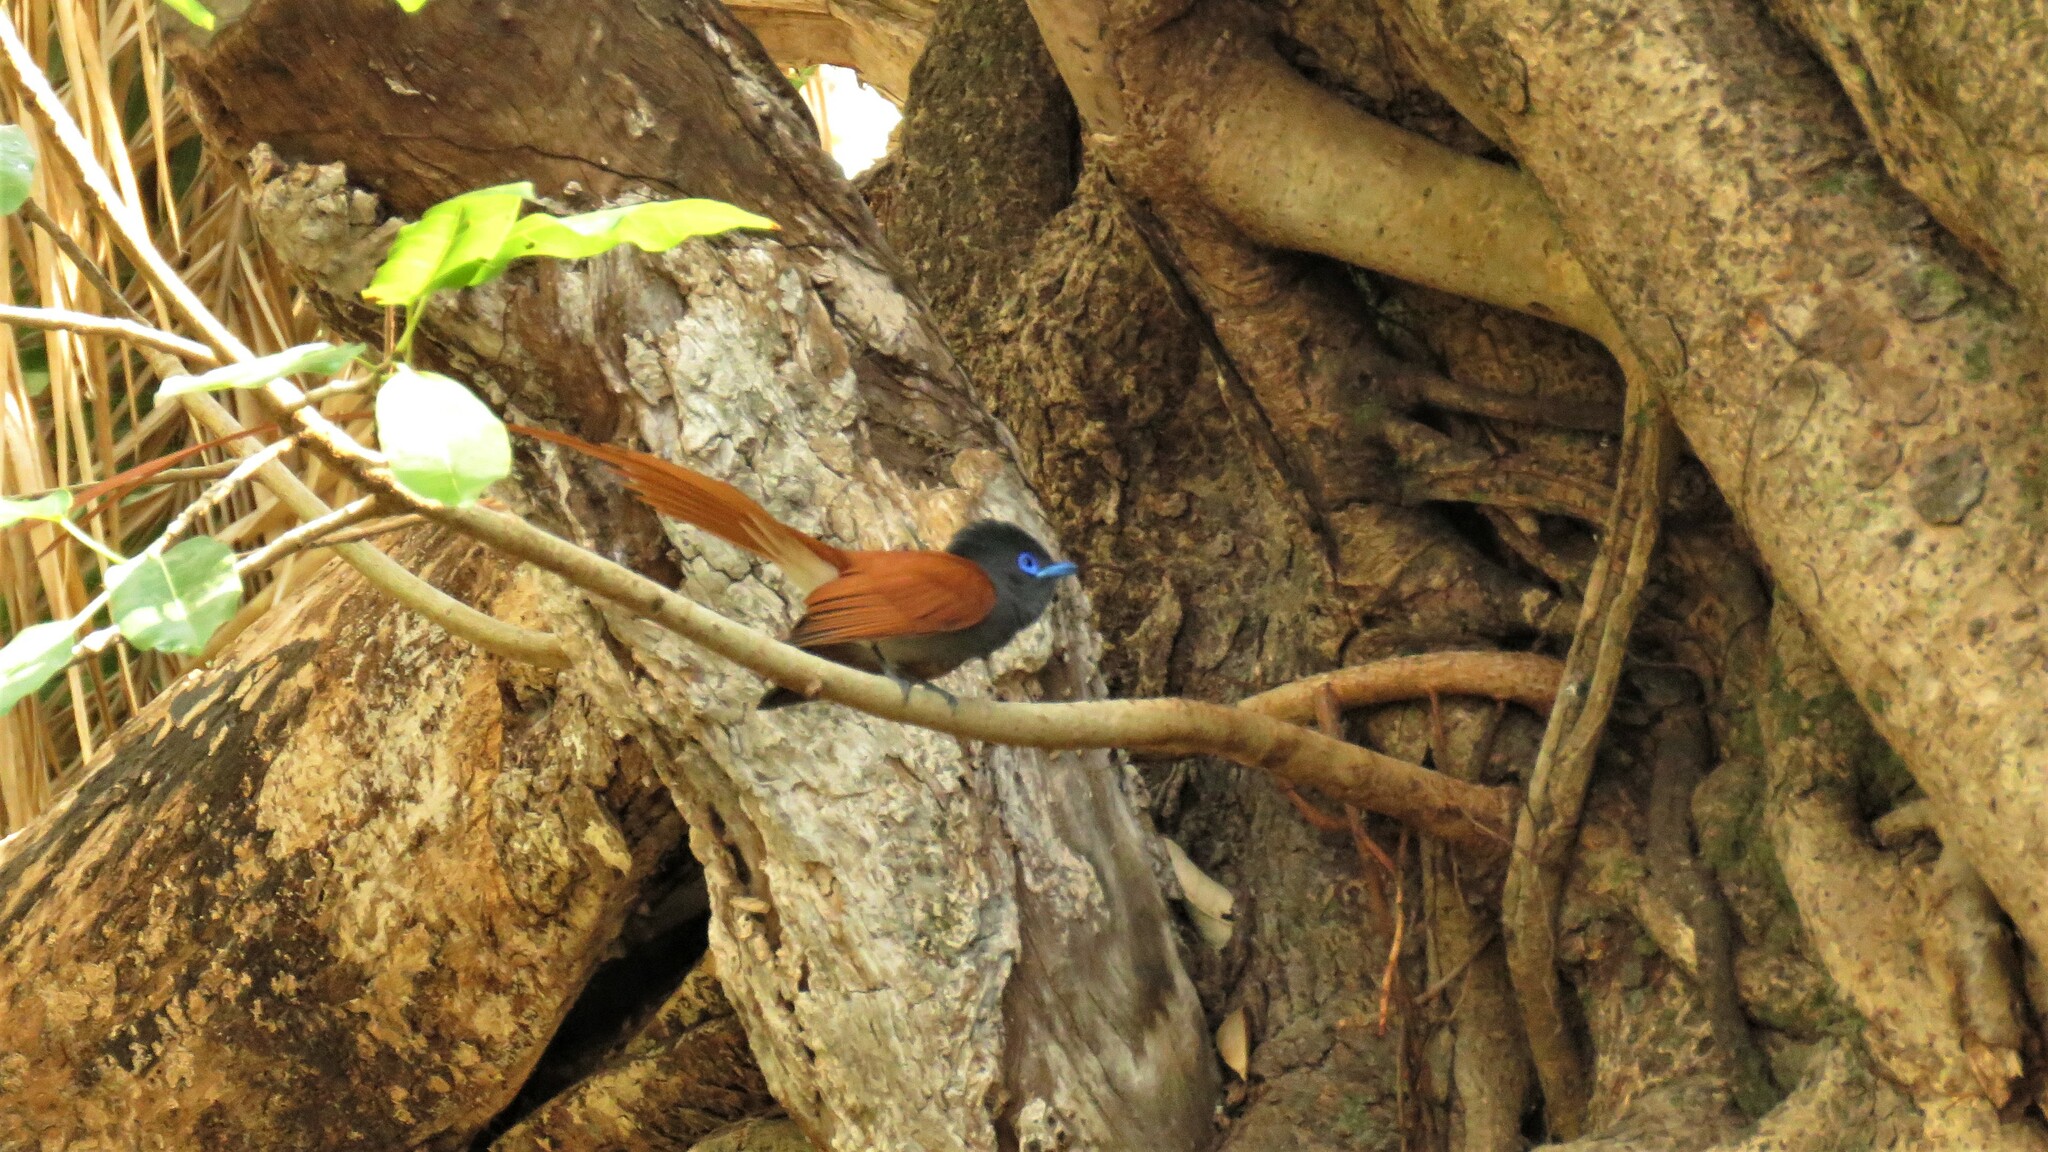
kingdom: Animalia
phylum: Chordata
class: Aves
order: Passeriformes
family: Monarchidae
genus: Terpsiphone
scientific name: Terpsiphone viridis
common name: African paradise flycatcher
